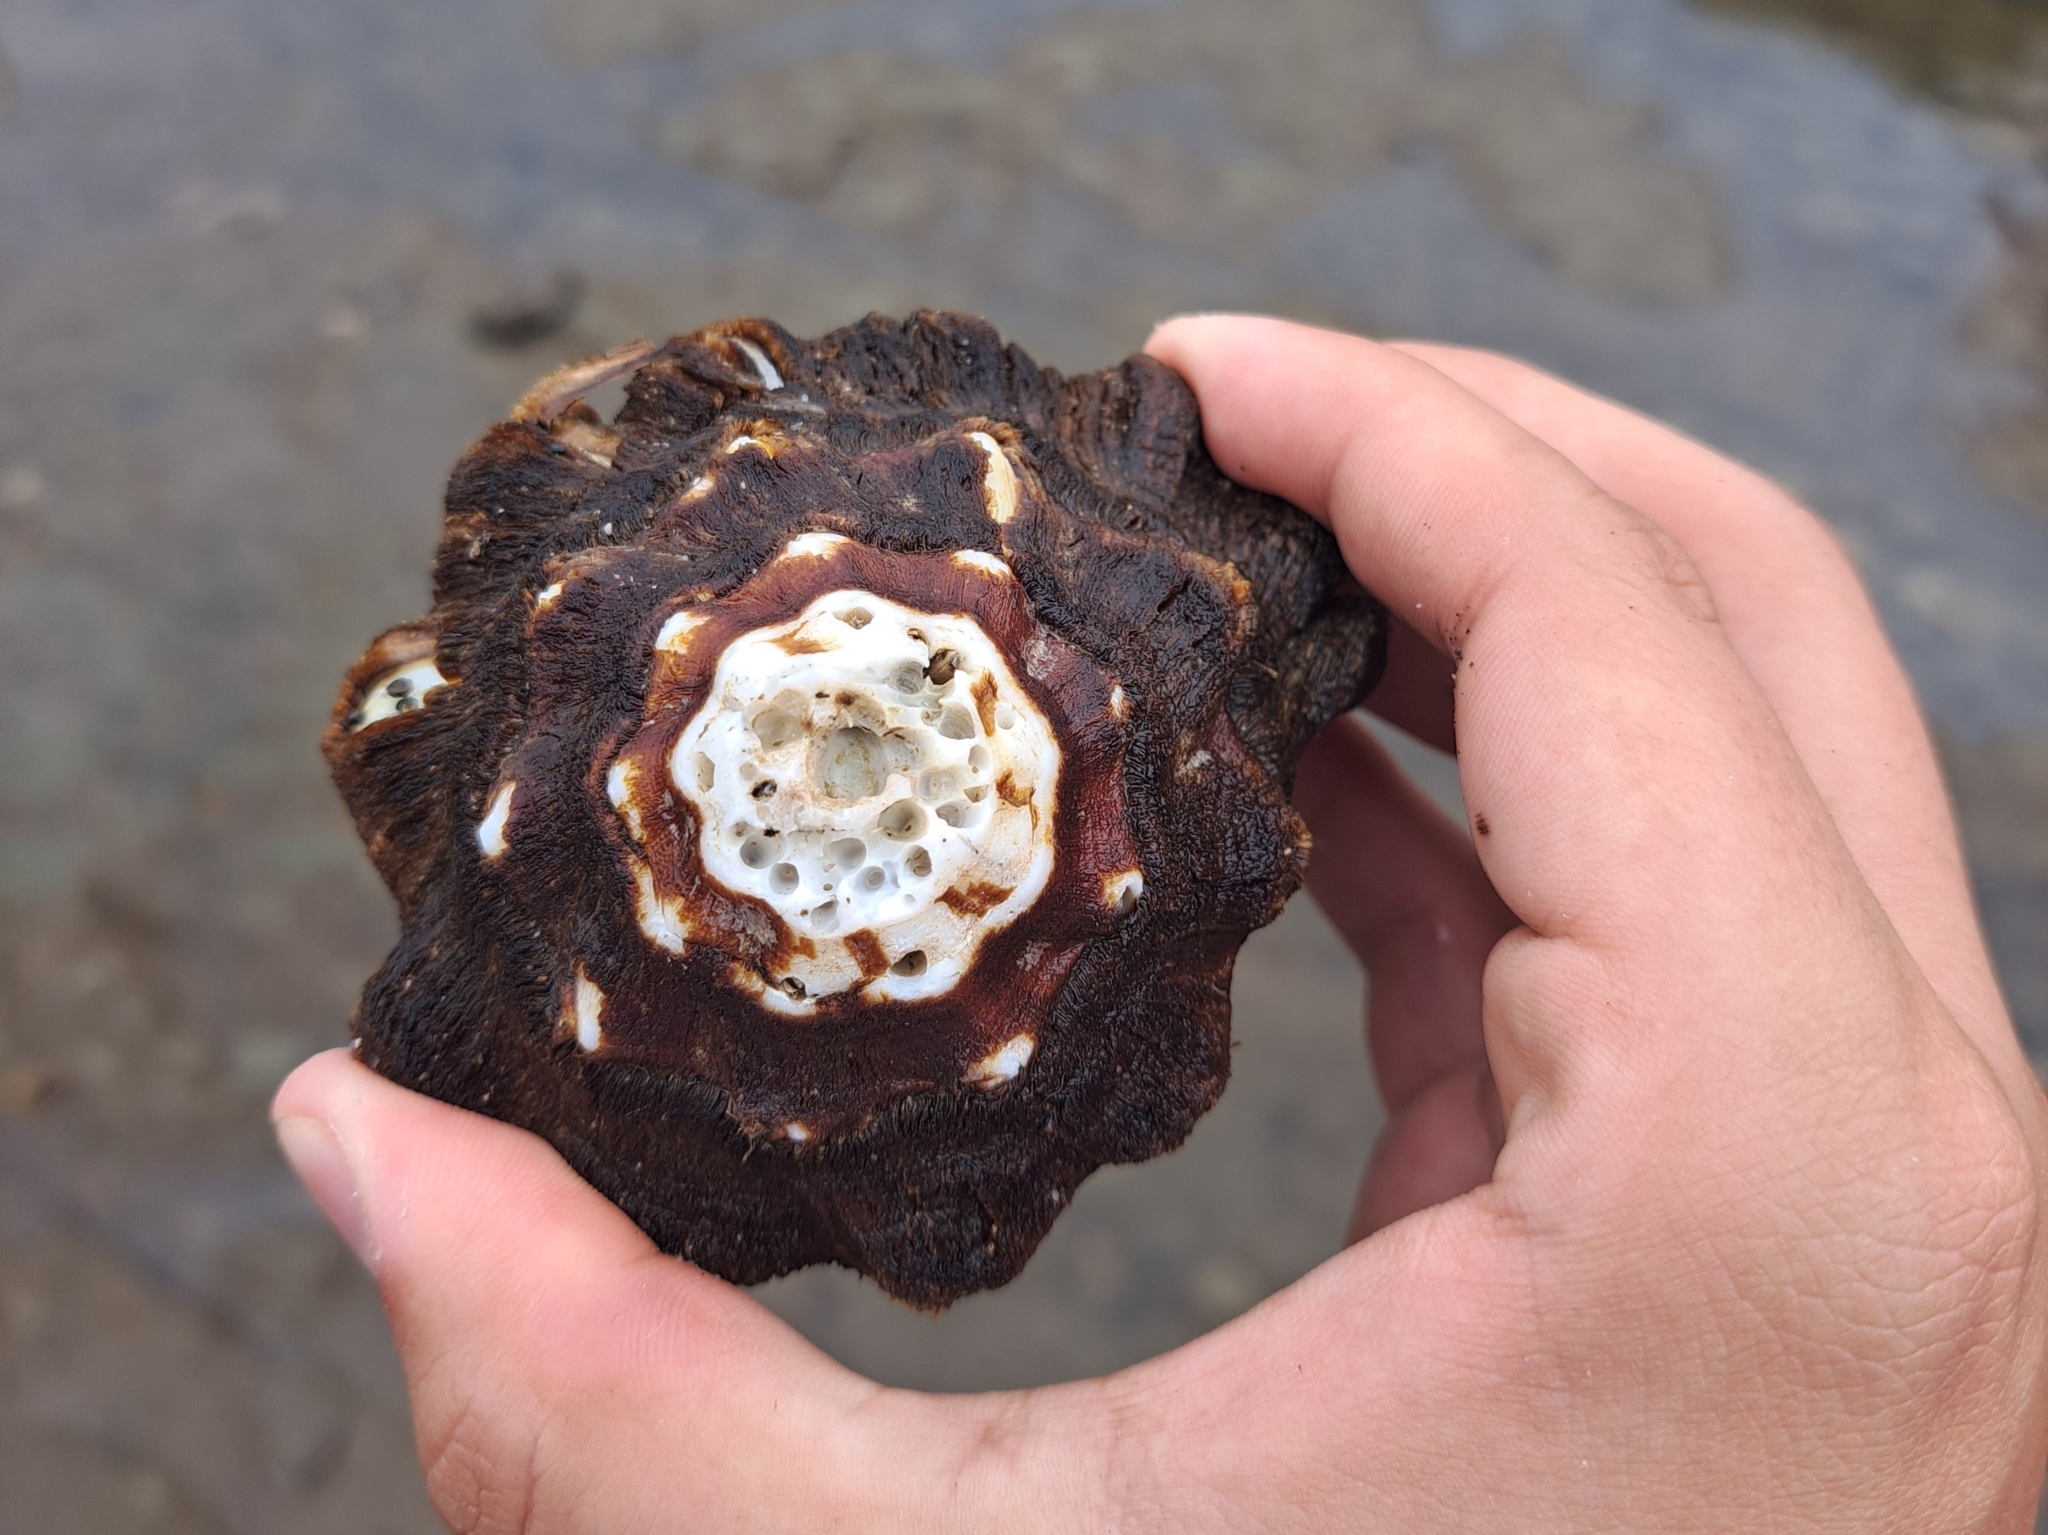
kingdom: Animalia
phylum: Mollusca
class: Gastropoda
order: Neogastropoda
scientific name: Neogastropoda
